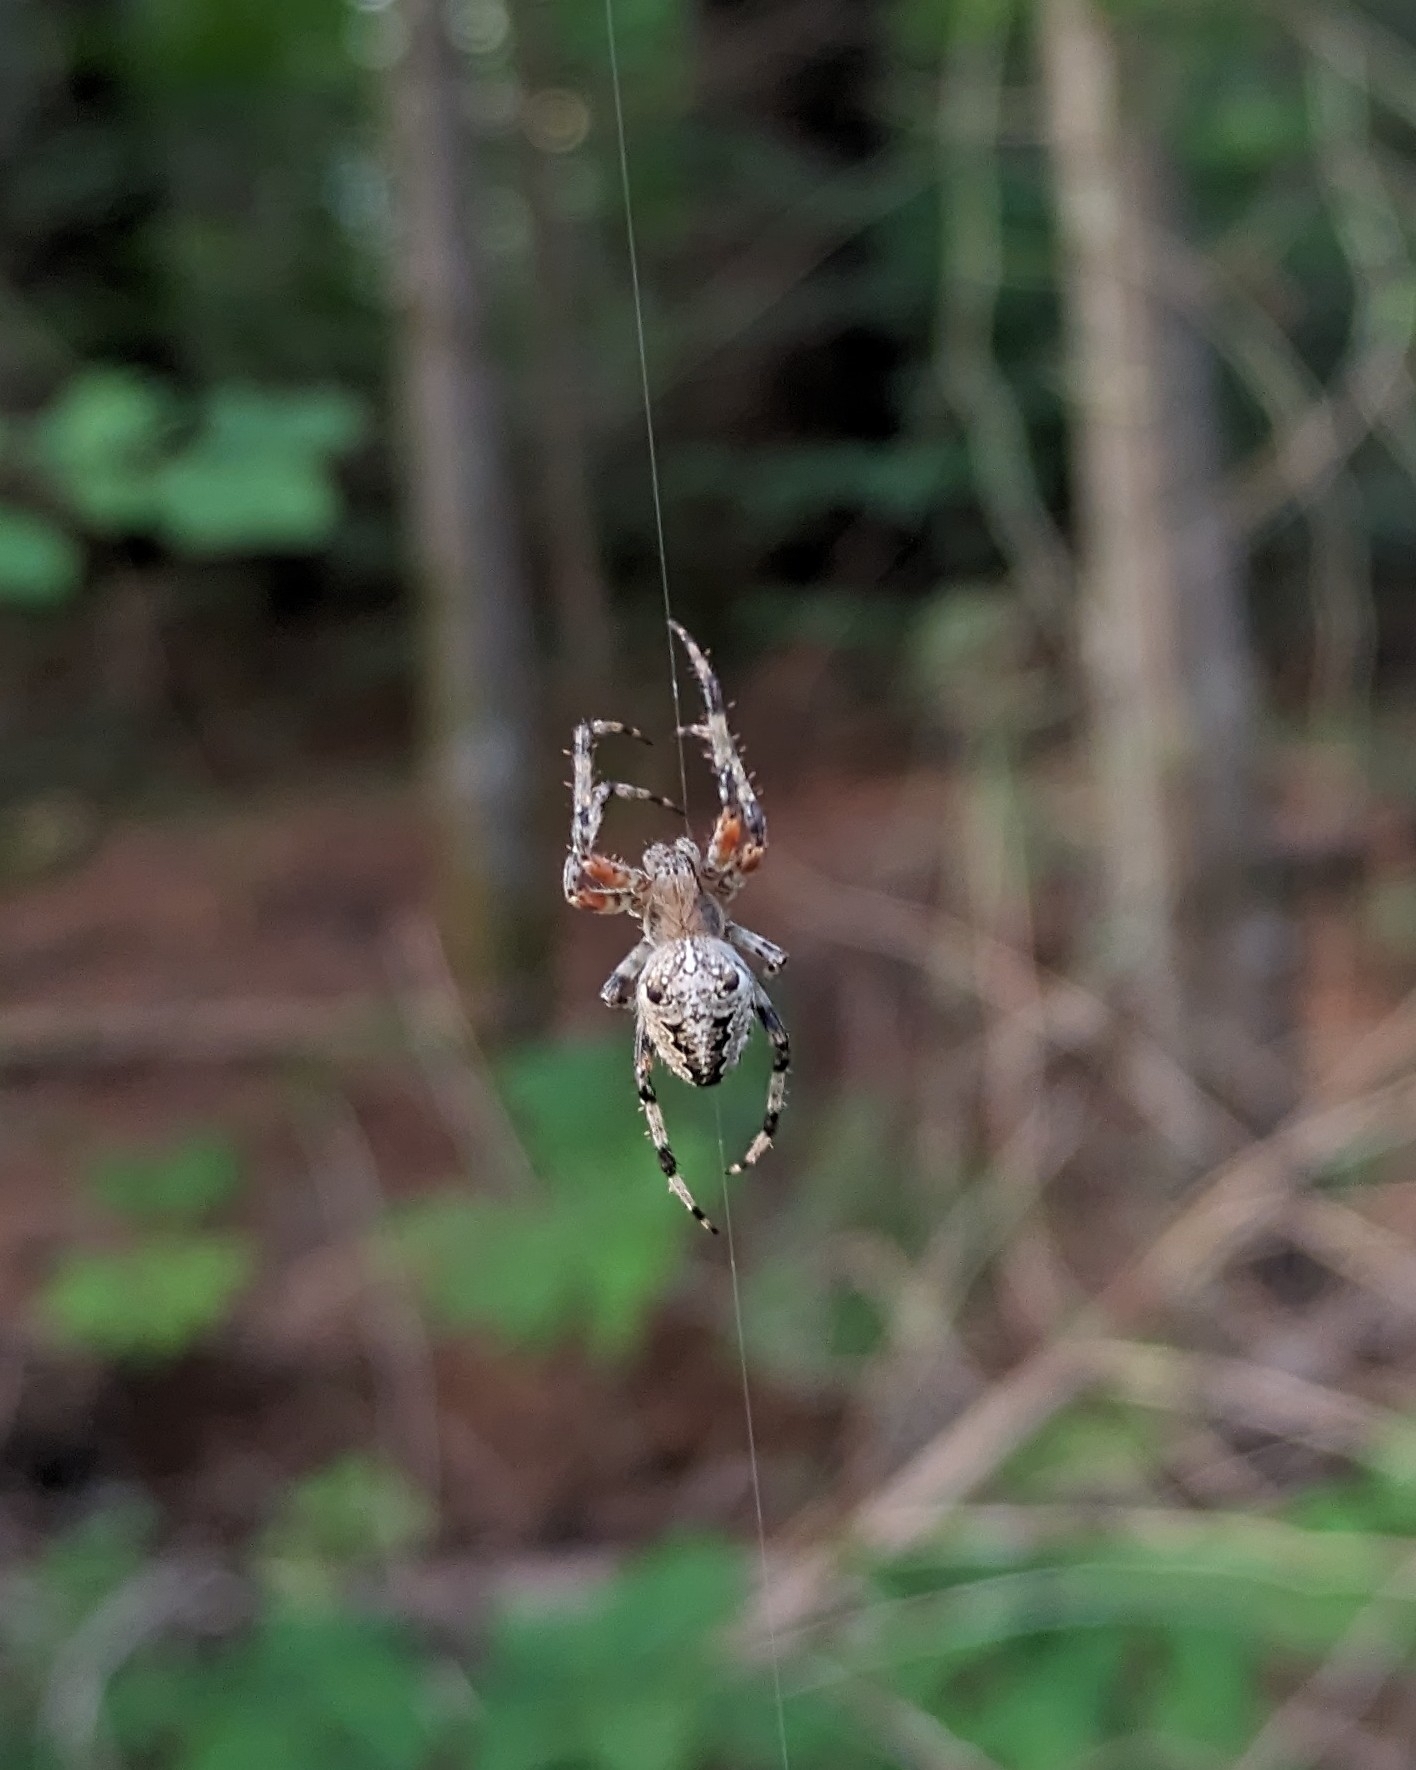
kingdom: Animalia
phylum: Arthropoda
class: Arachnida
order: Araneae
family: Araneidae
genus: Araneus
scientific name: Araneus nordmanni
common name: Nordmann's orbweaver
